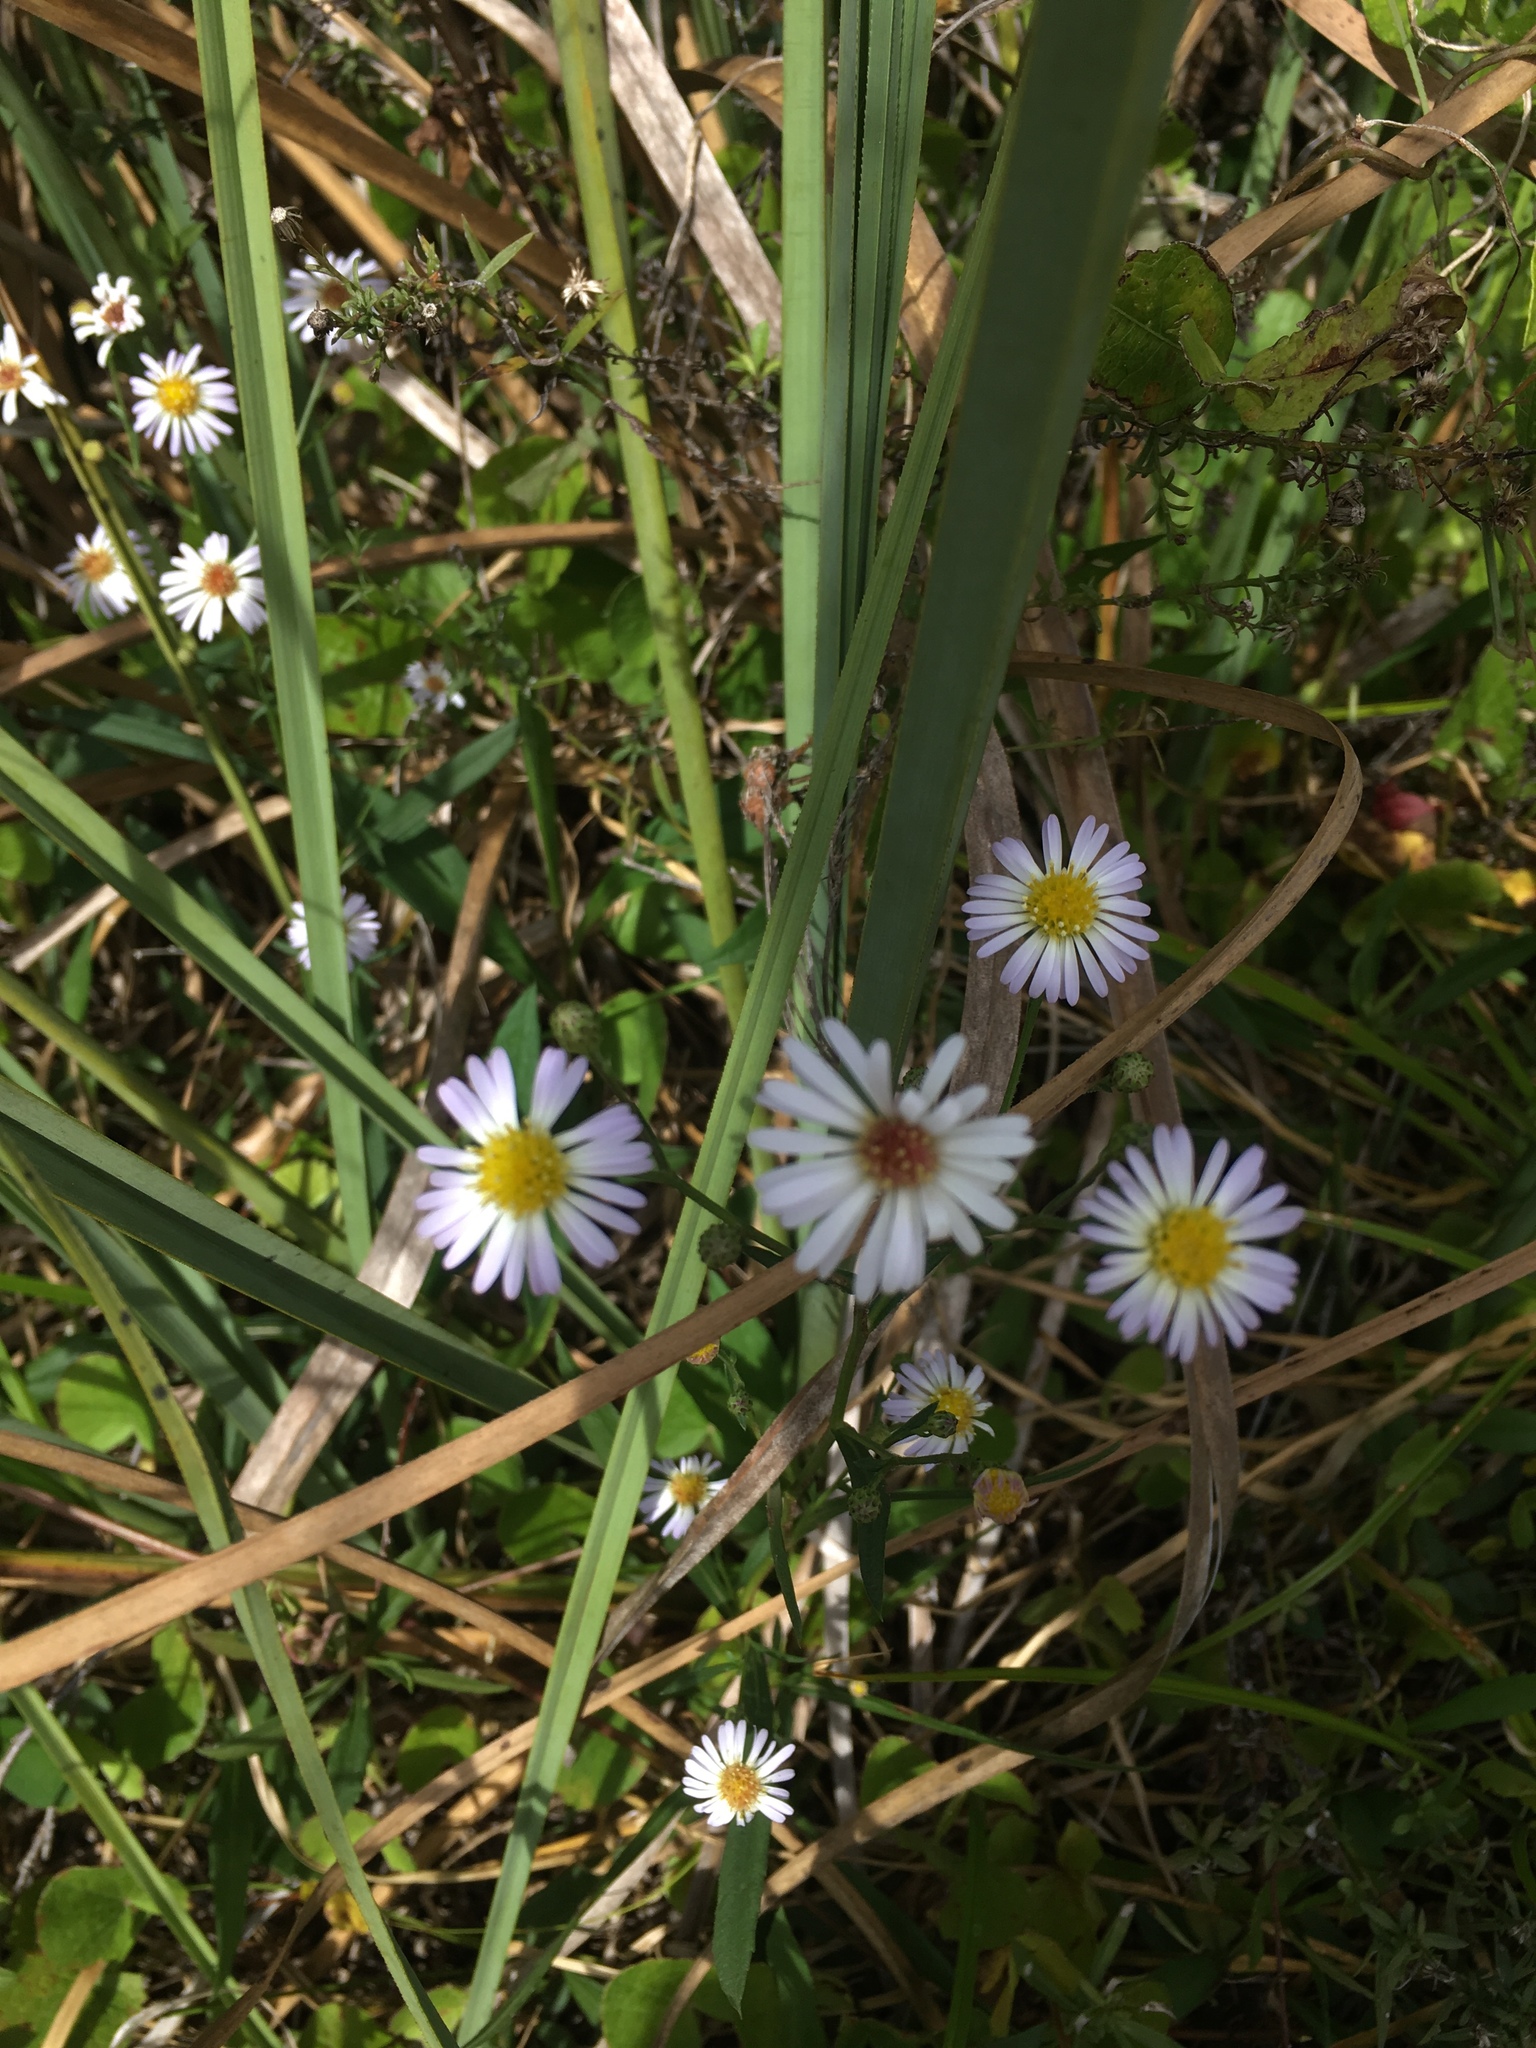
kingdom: Plantae
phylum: Tracheophyta
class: Magnoliopsida
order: Asterales
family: Asteraceae
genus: Symphyotrichum
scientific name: Symphyotrichum simmondsii
